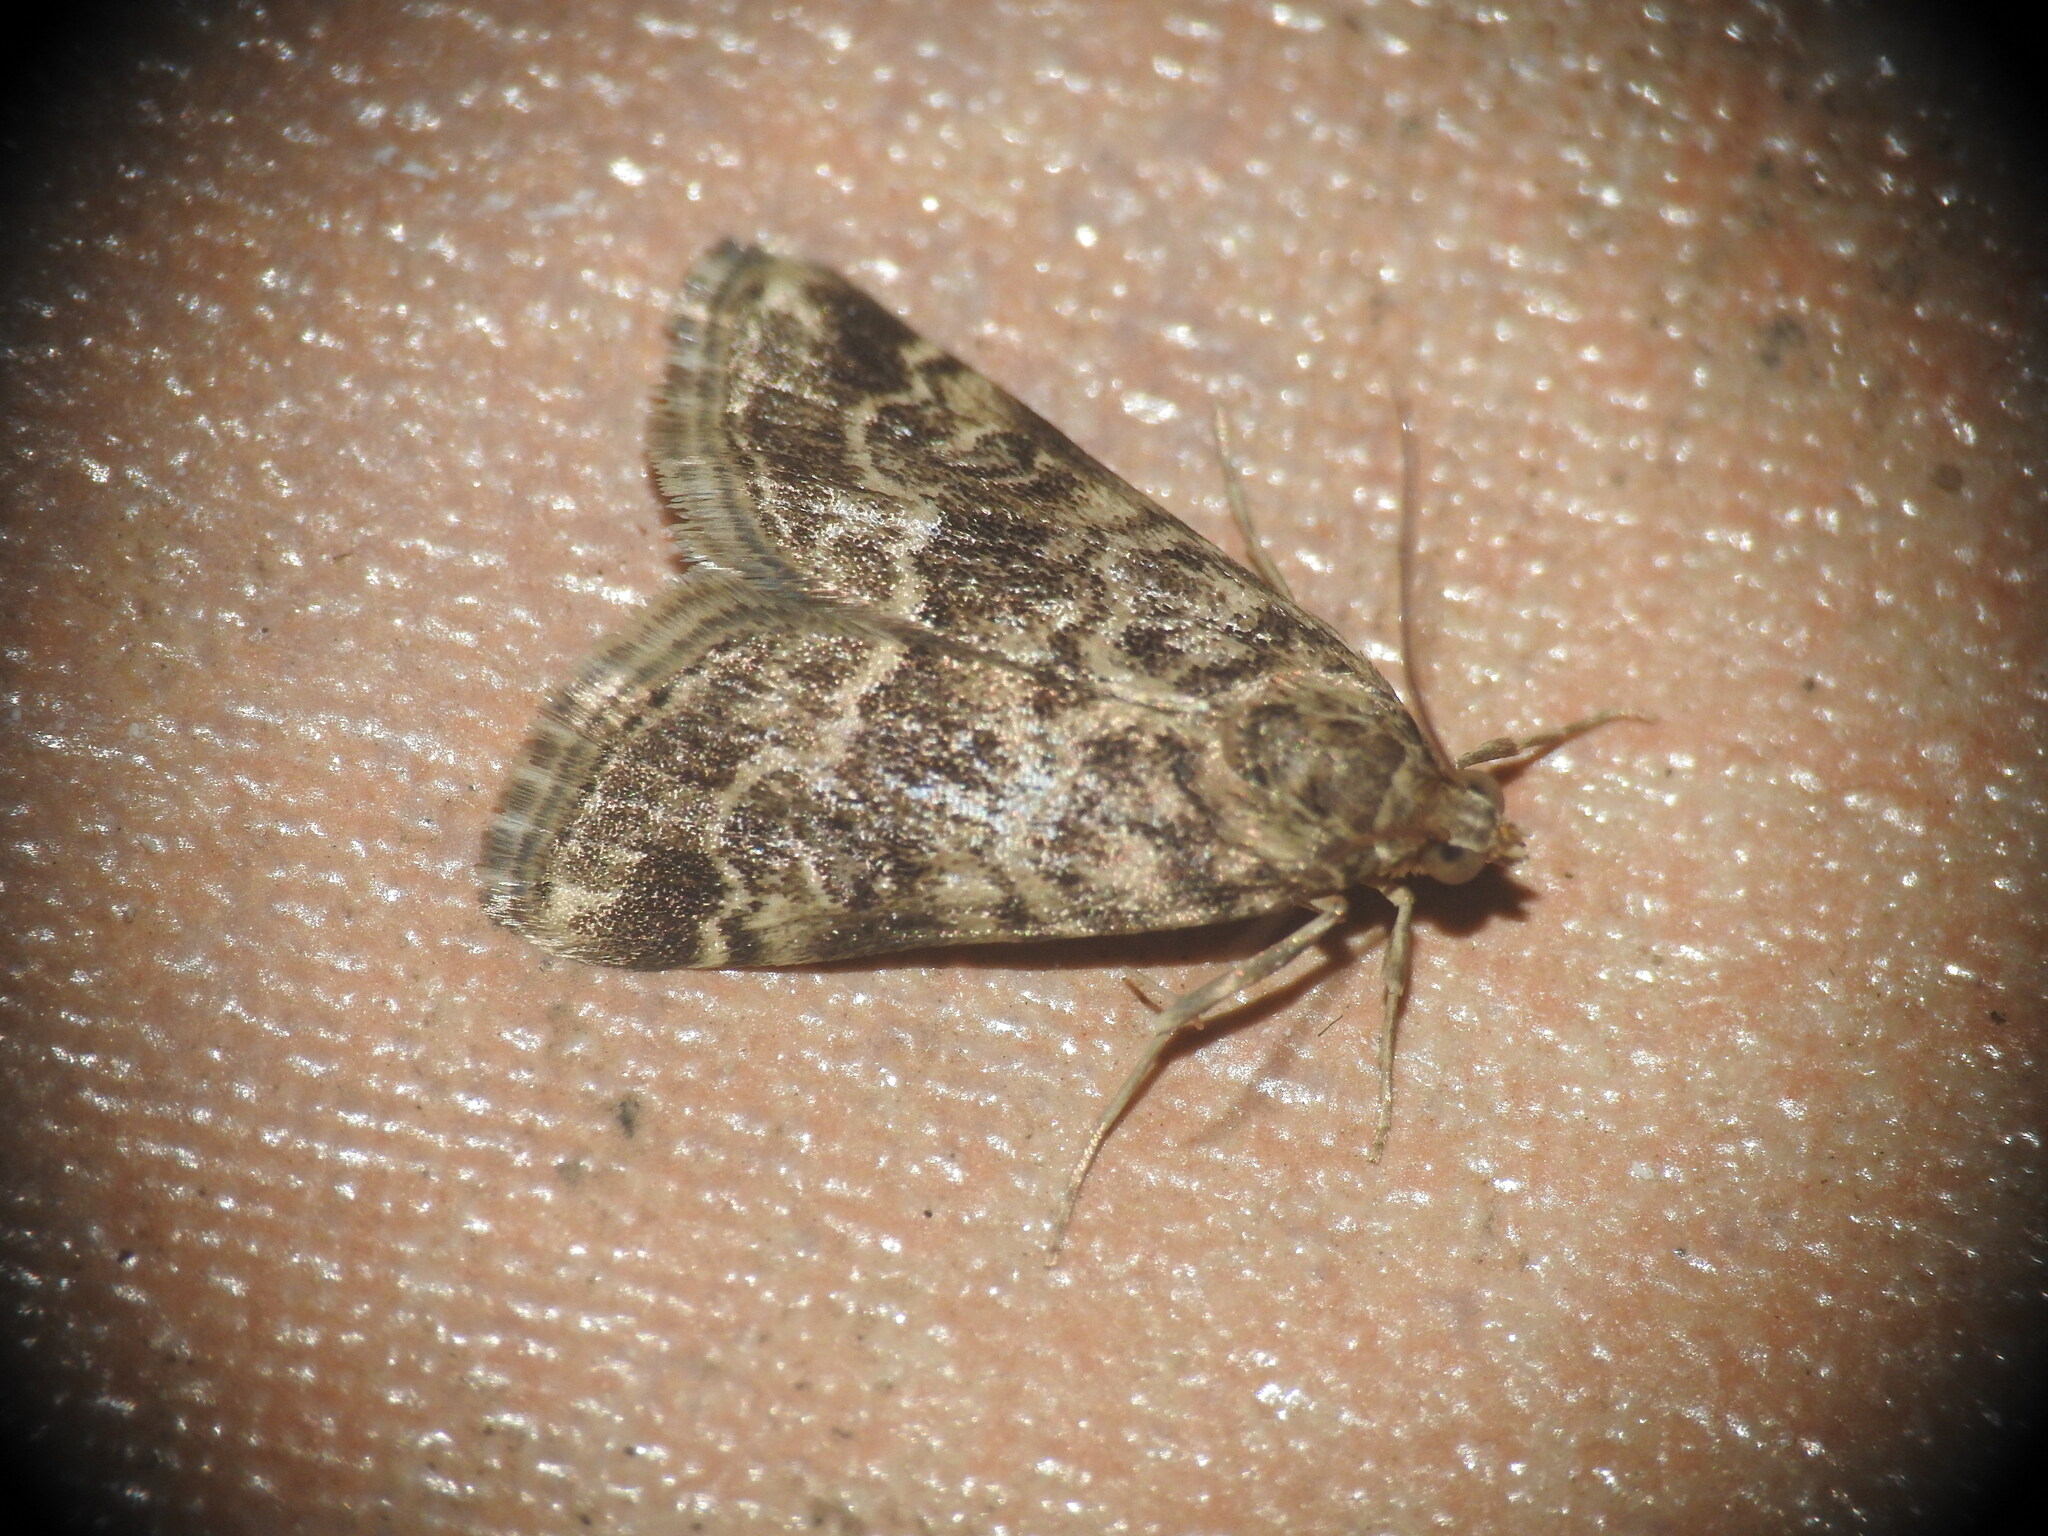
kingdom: Animalia
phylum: Arthropoda
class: Insecta
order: Lepidoptera
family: Crambidae
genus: Hellula
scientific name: Hellula undalis
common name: Cabbage webworm
